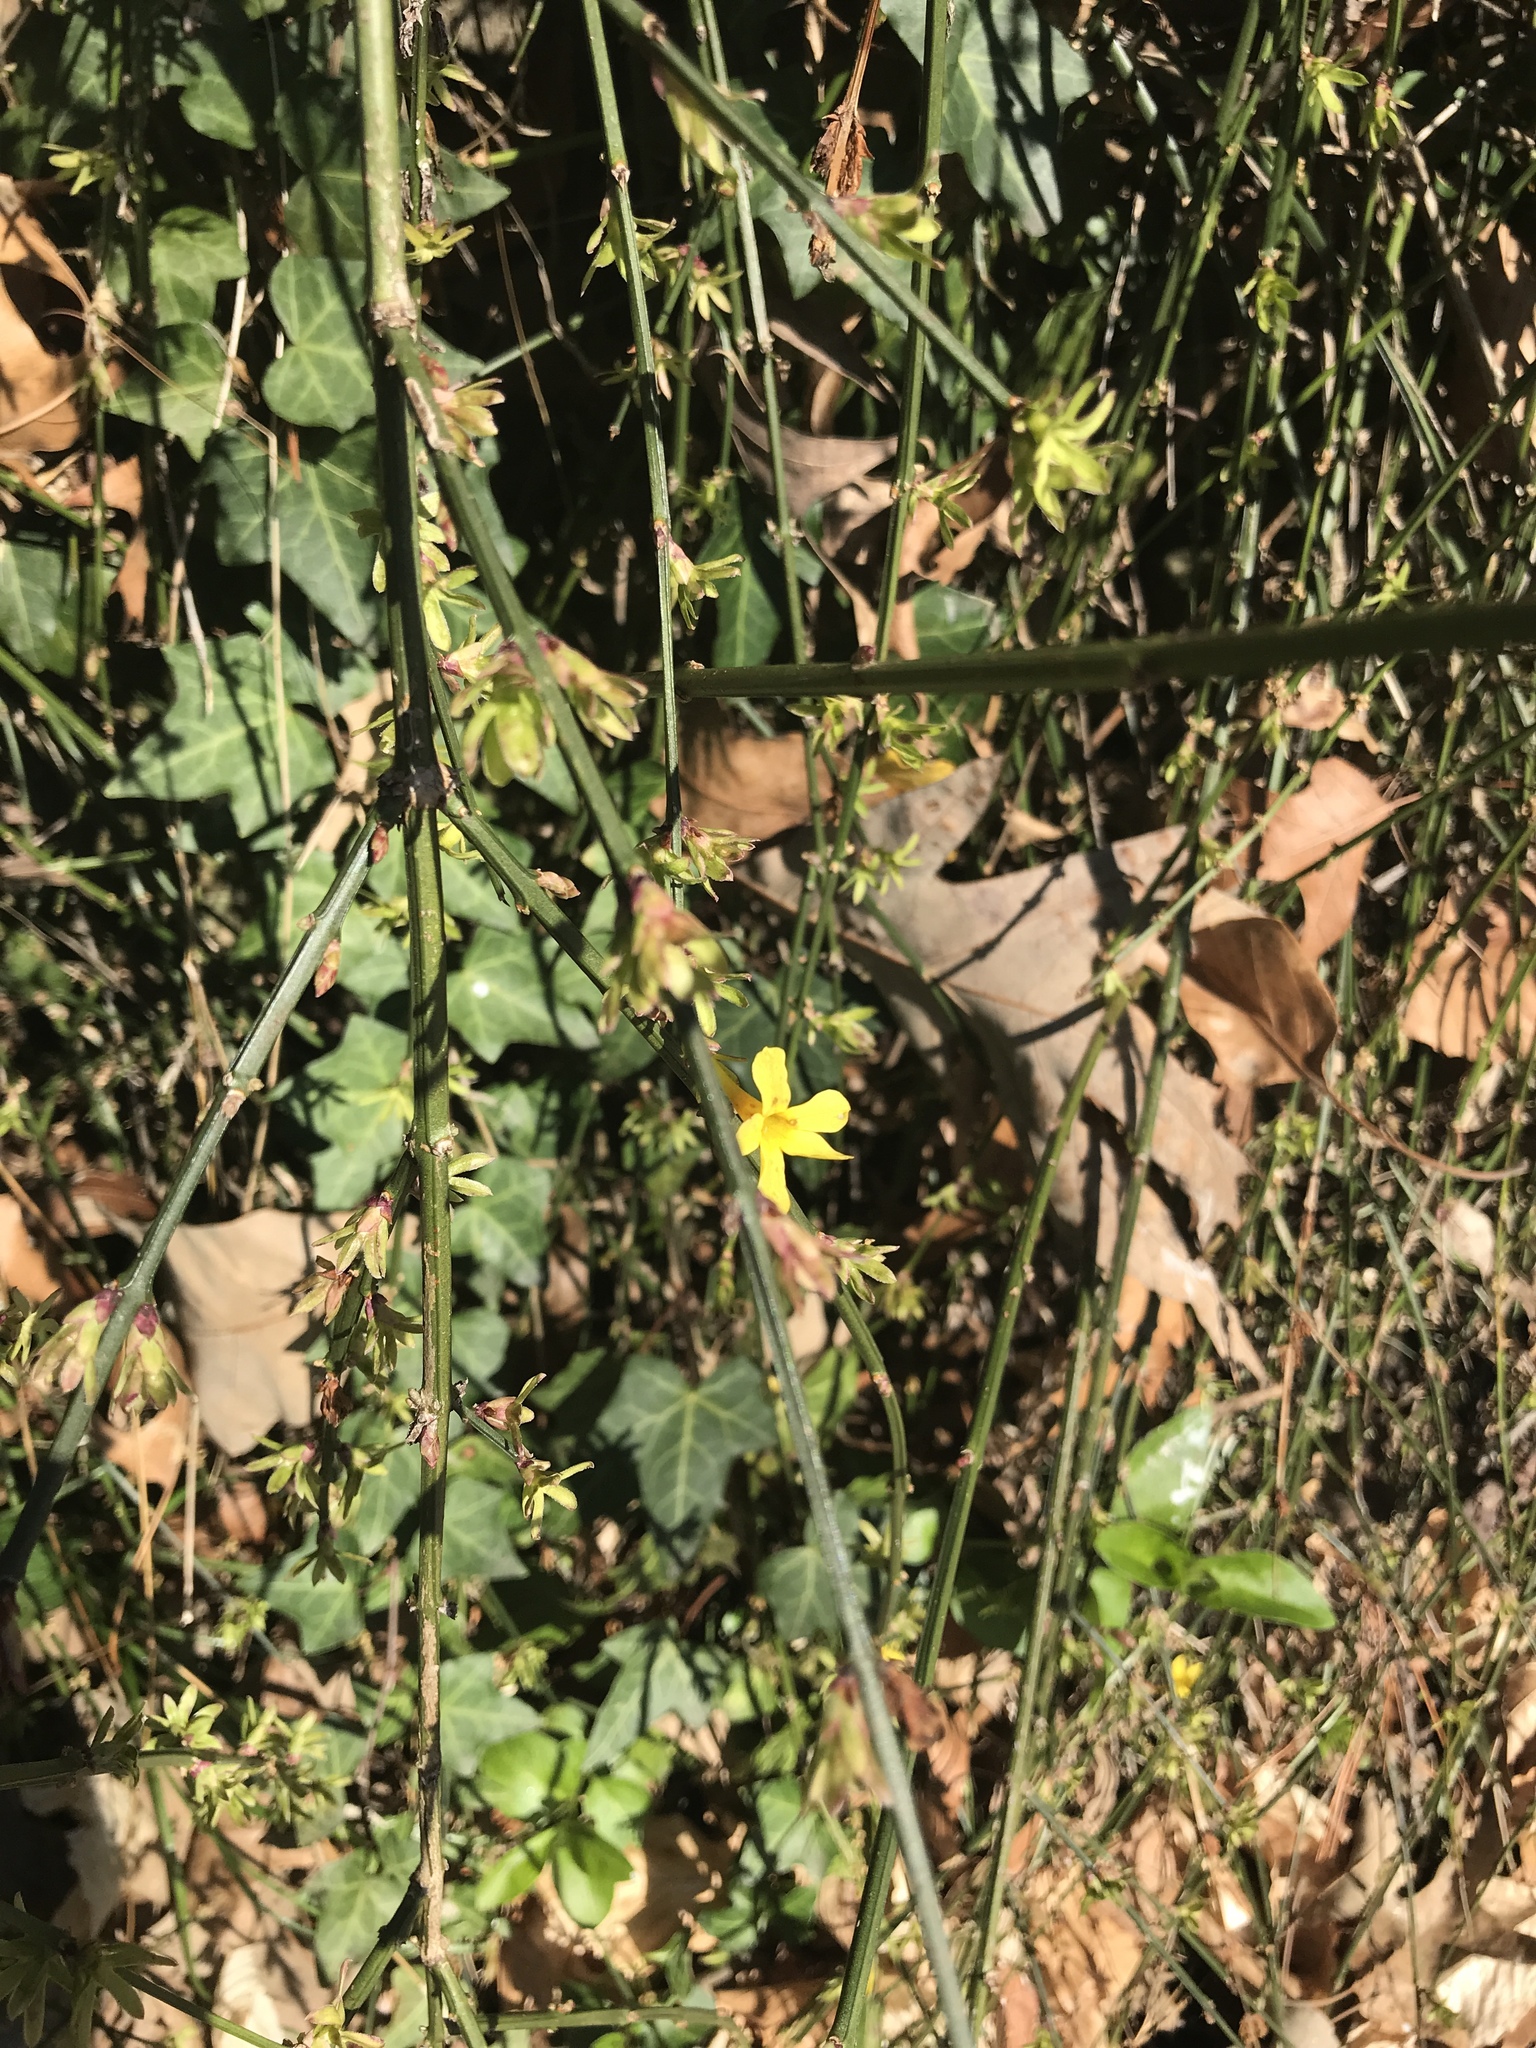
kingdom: Plantae
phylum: Tracheophyta
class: Magnoliopsida
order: Lamiales
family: Oleaceae
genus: Jasminum
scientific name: Jasminum nudiflorum
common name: Winter jasmine
